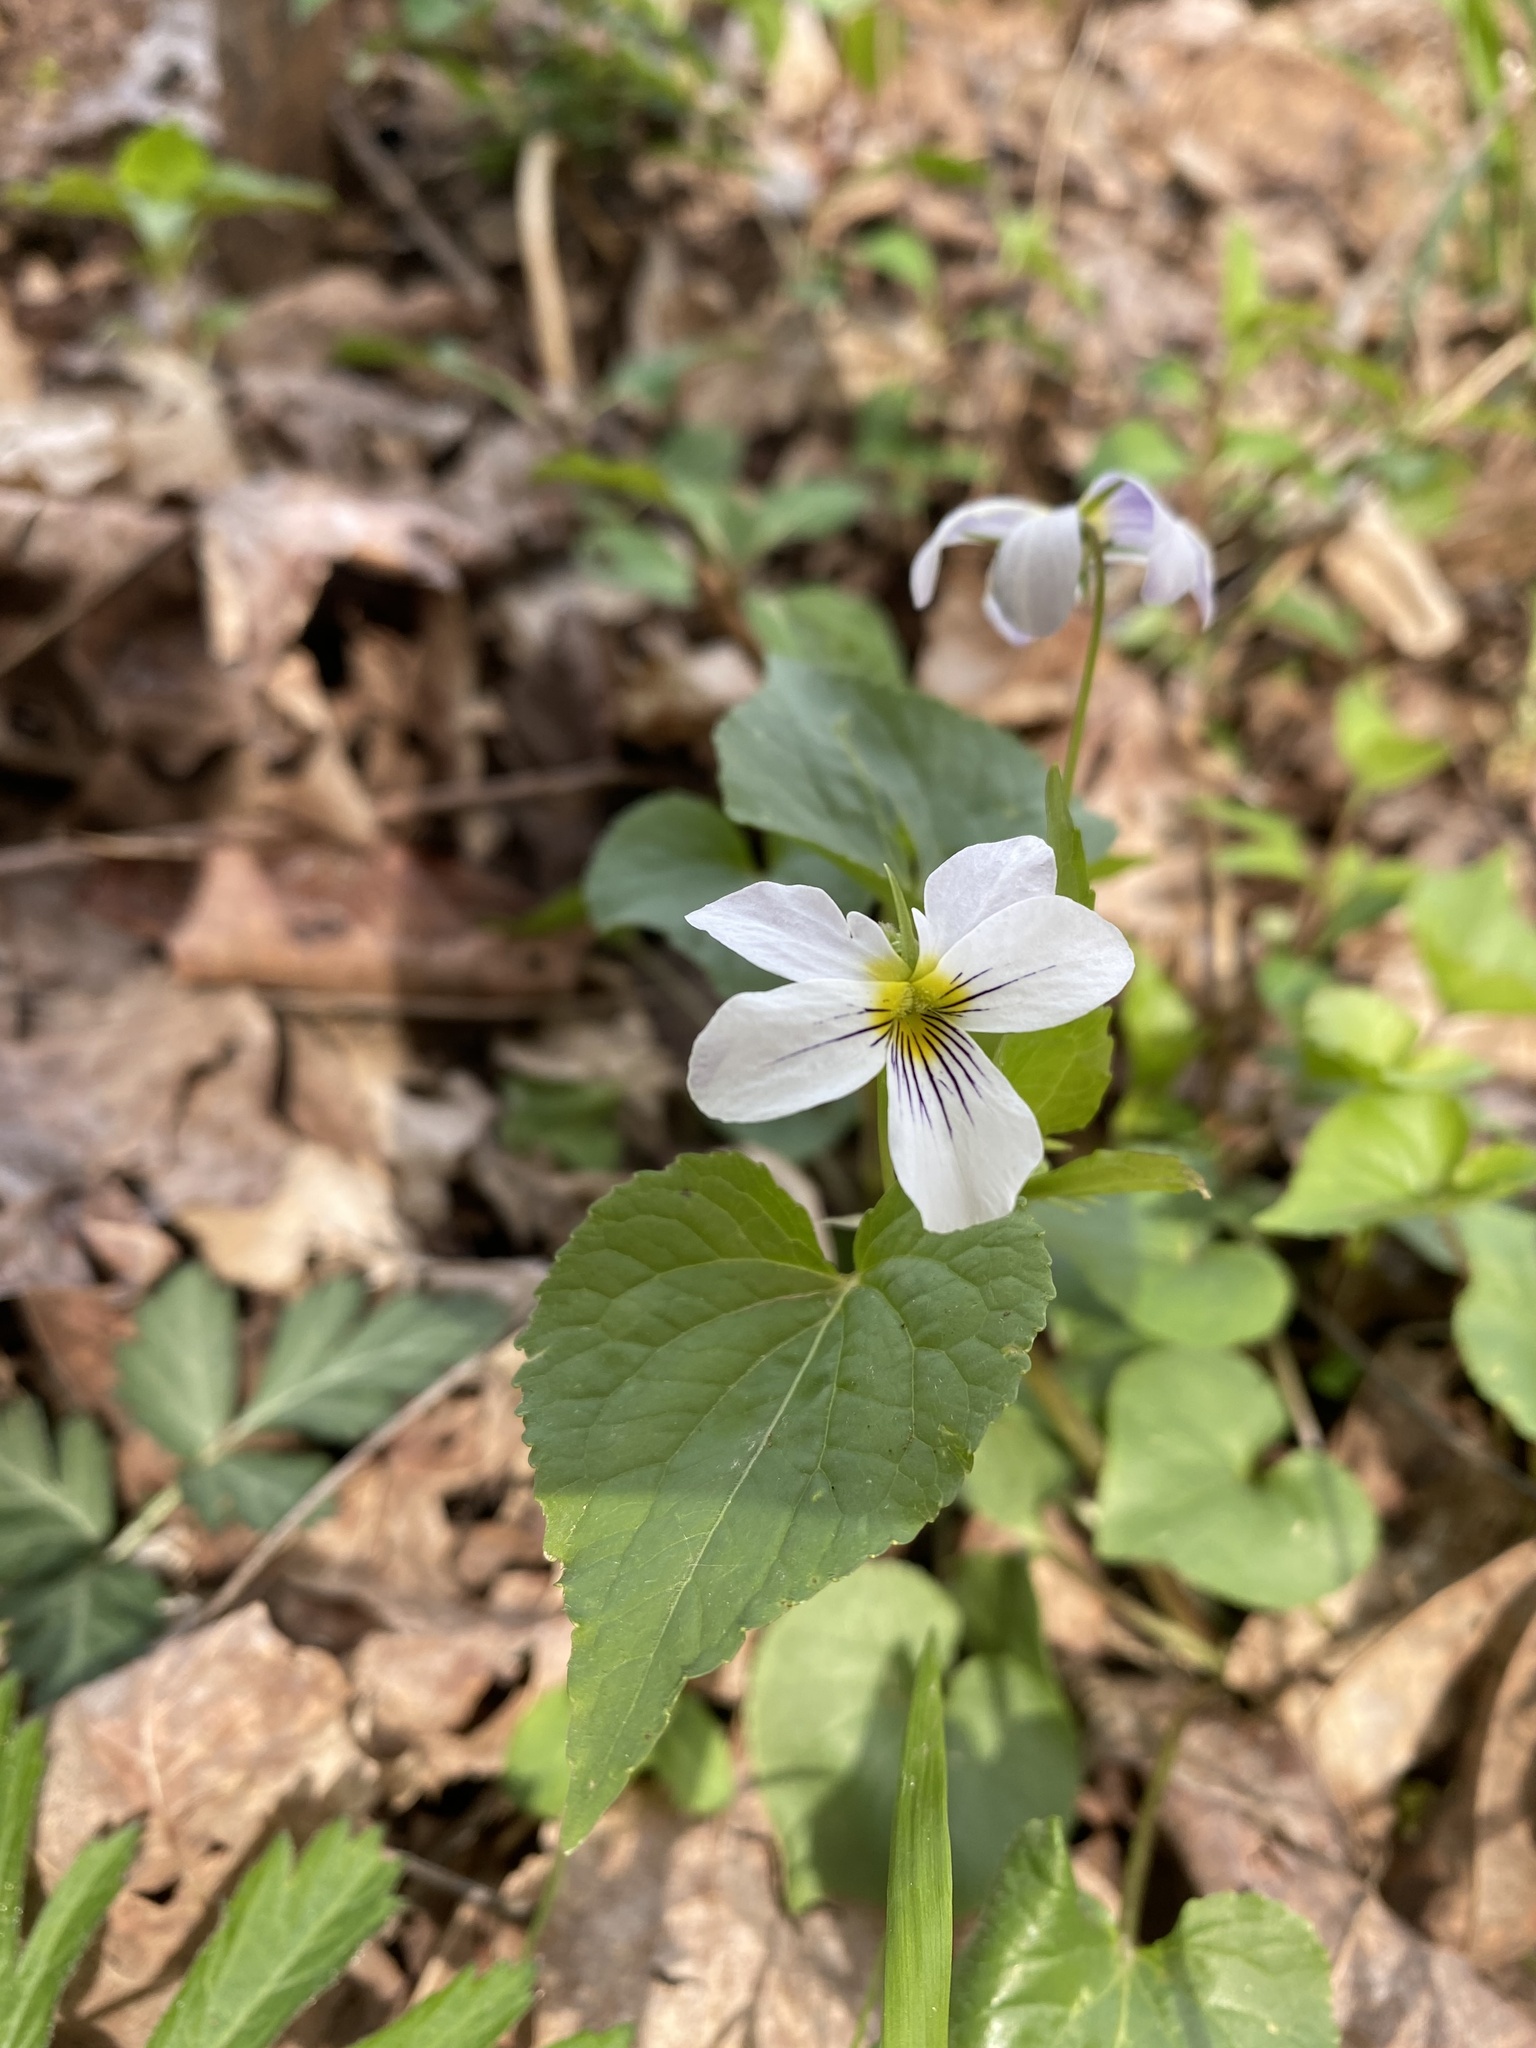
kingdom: Plantae
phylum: Tracheophyta
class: Magnoliopsida
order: Malpighiales
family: Violaceae
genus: Viola
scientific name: Viola canadensis
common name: Canada violet
